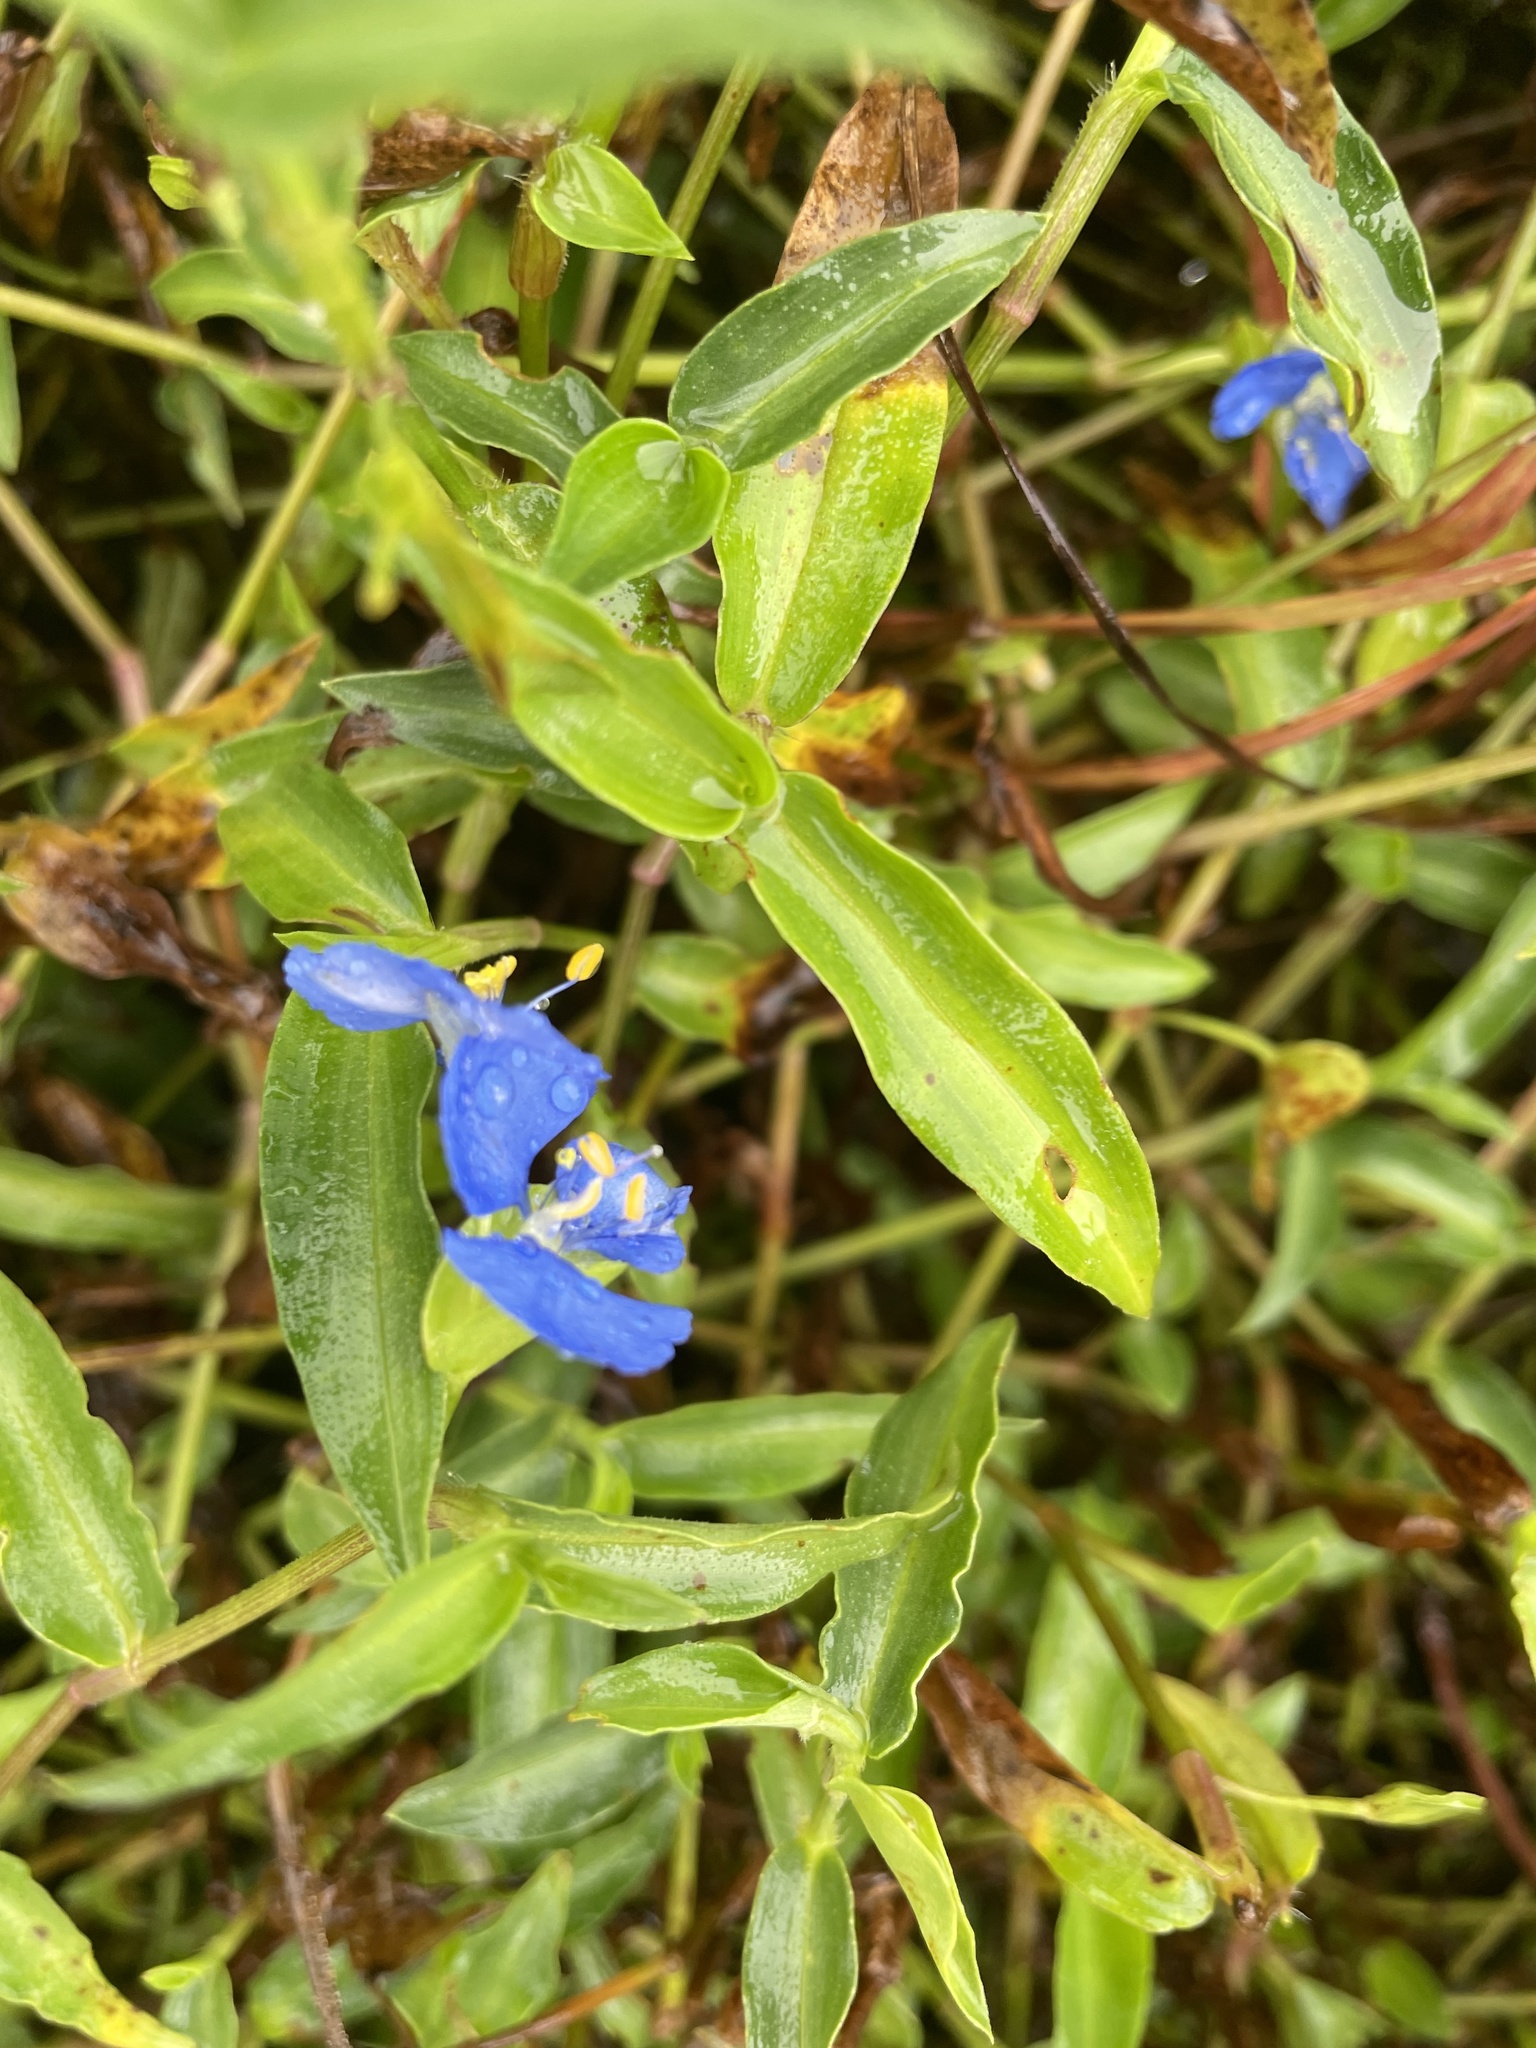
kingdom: Plantae
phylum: Tracheophyta
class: Liliopsida
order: Commelinales
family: Commelinaceae
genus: Commelina
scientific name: Commelina cyanea
